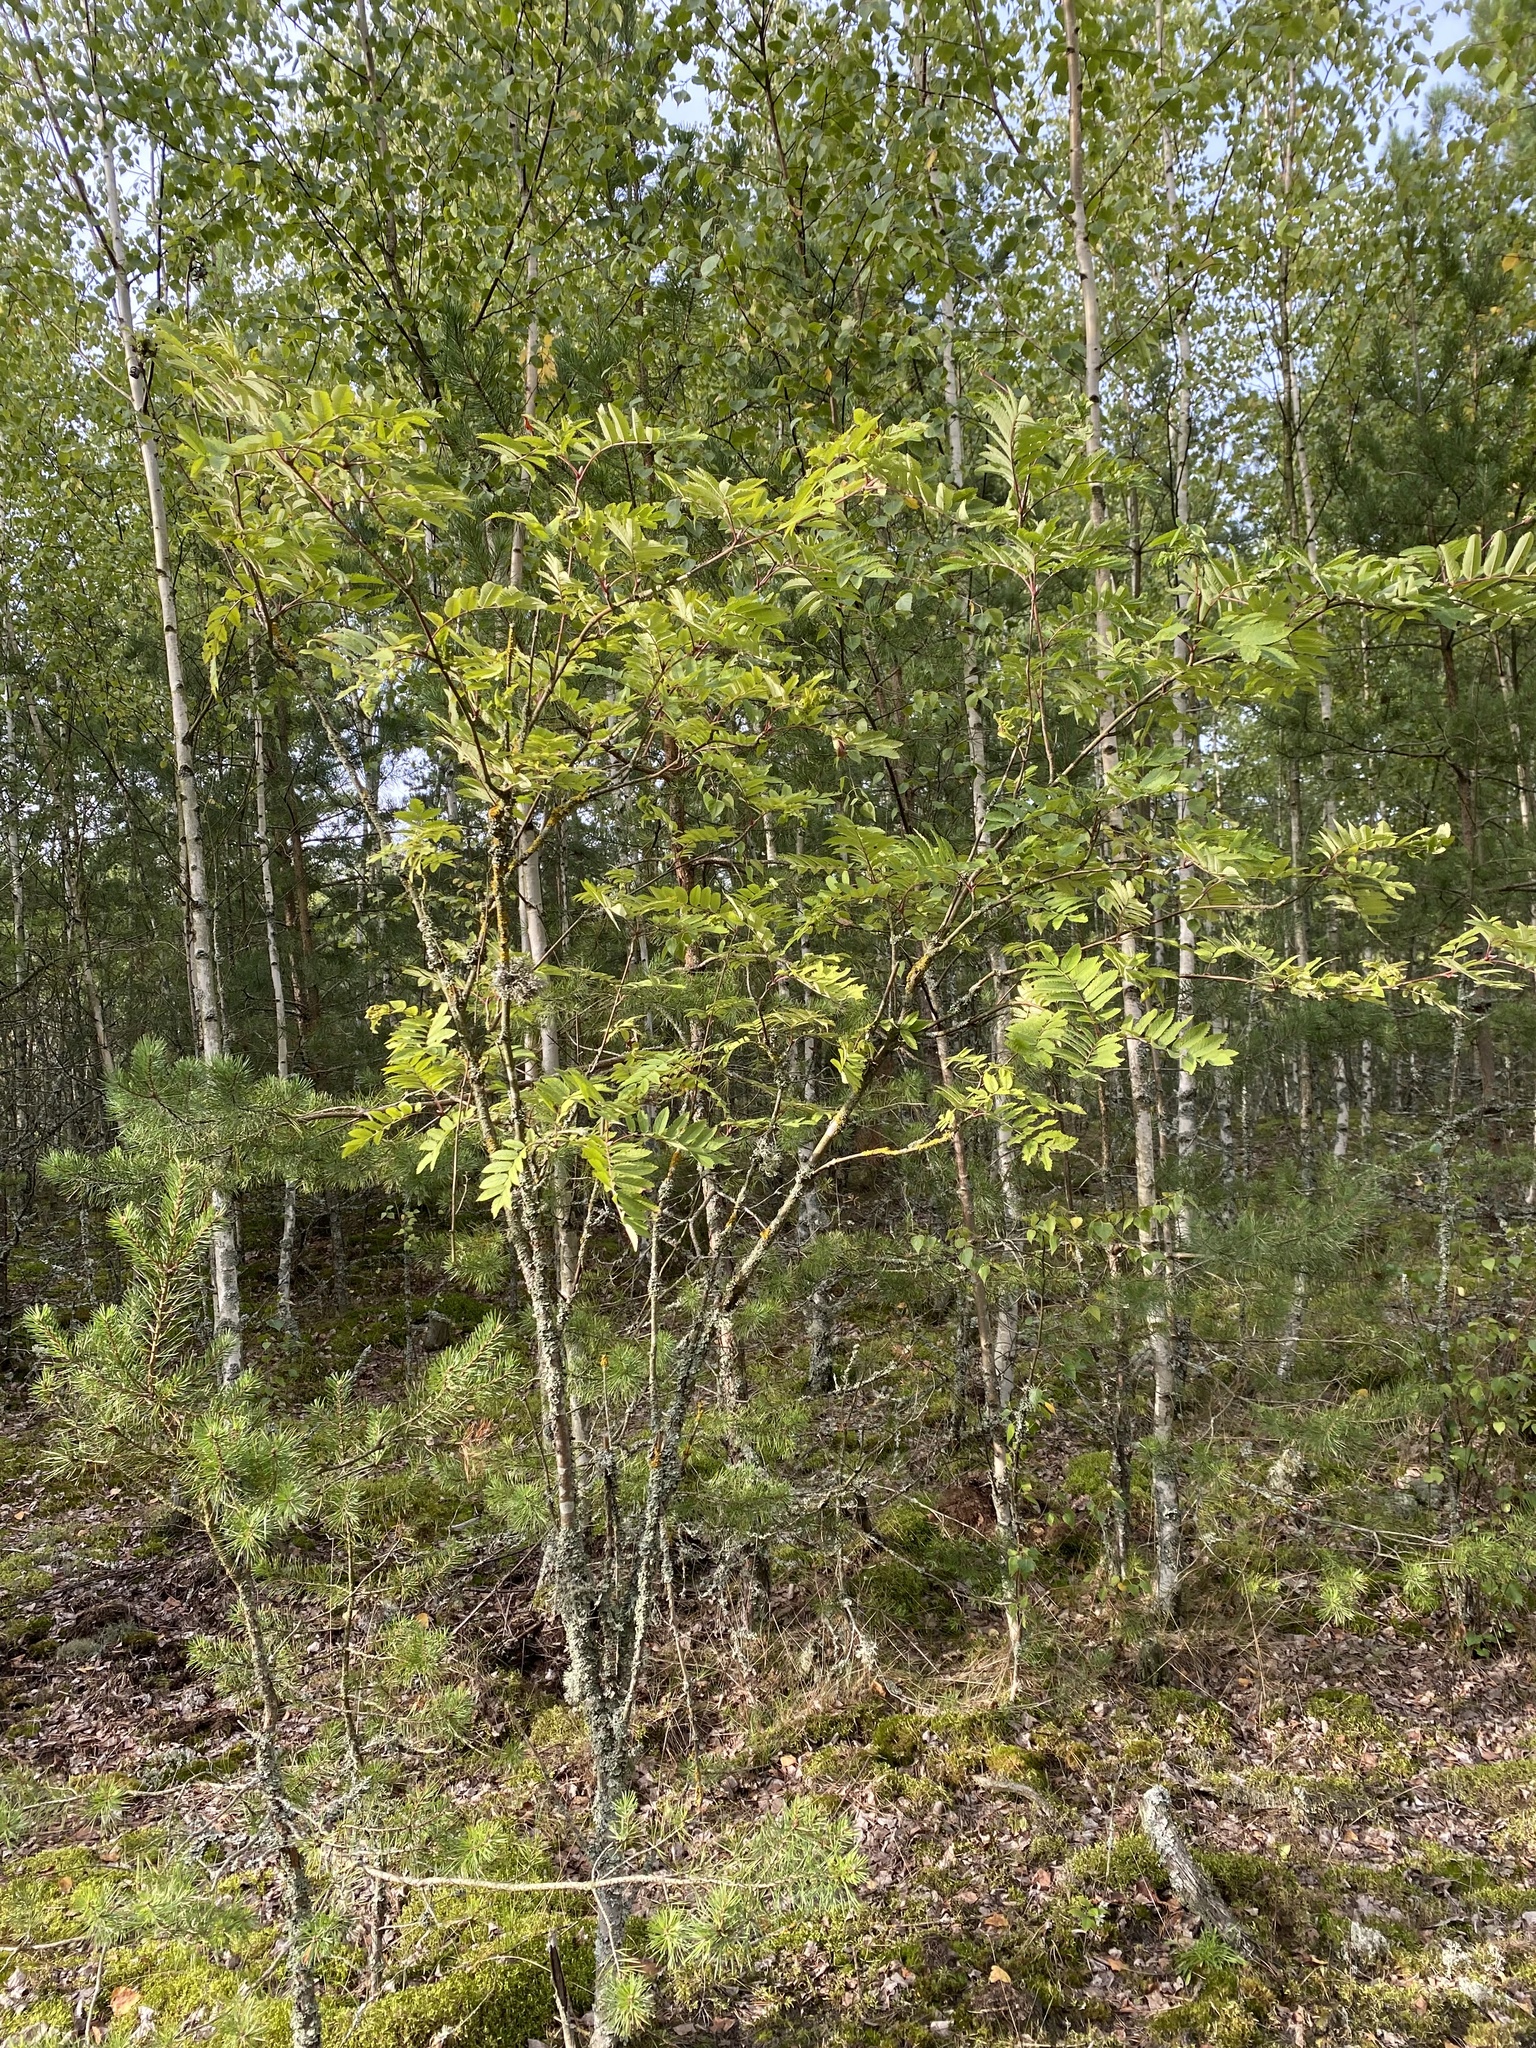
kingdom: Plantae
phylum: Tracheophyta
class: Magnoliopsida
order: Rosales
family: Rosaceae
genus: Sorbus
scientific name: Sorbus aucuparia
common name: Rowan
